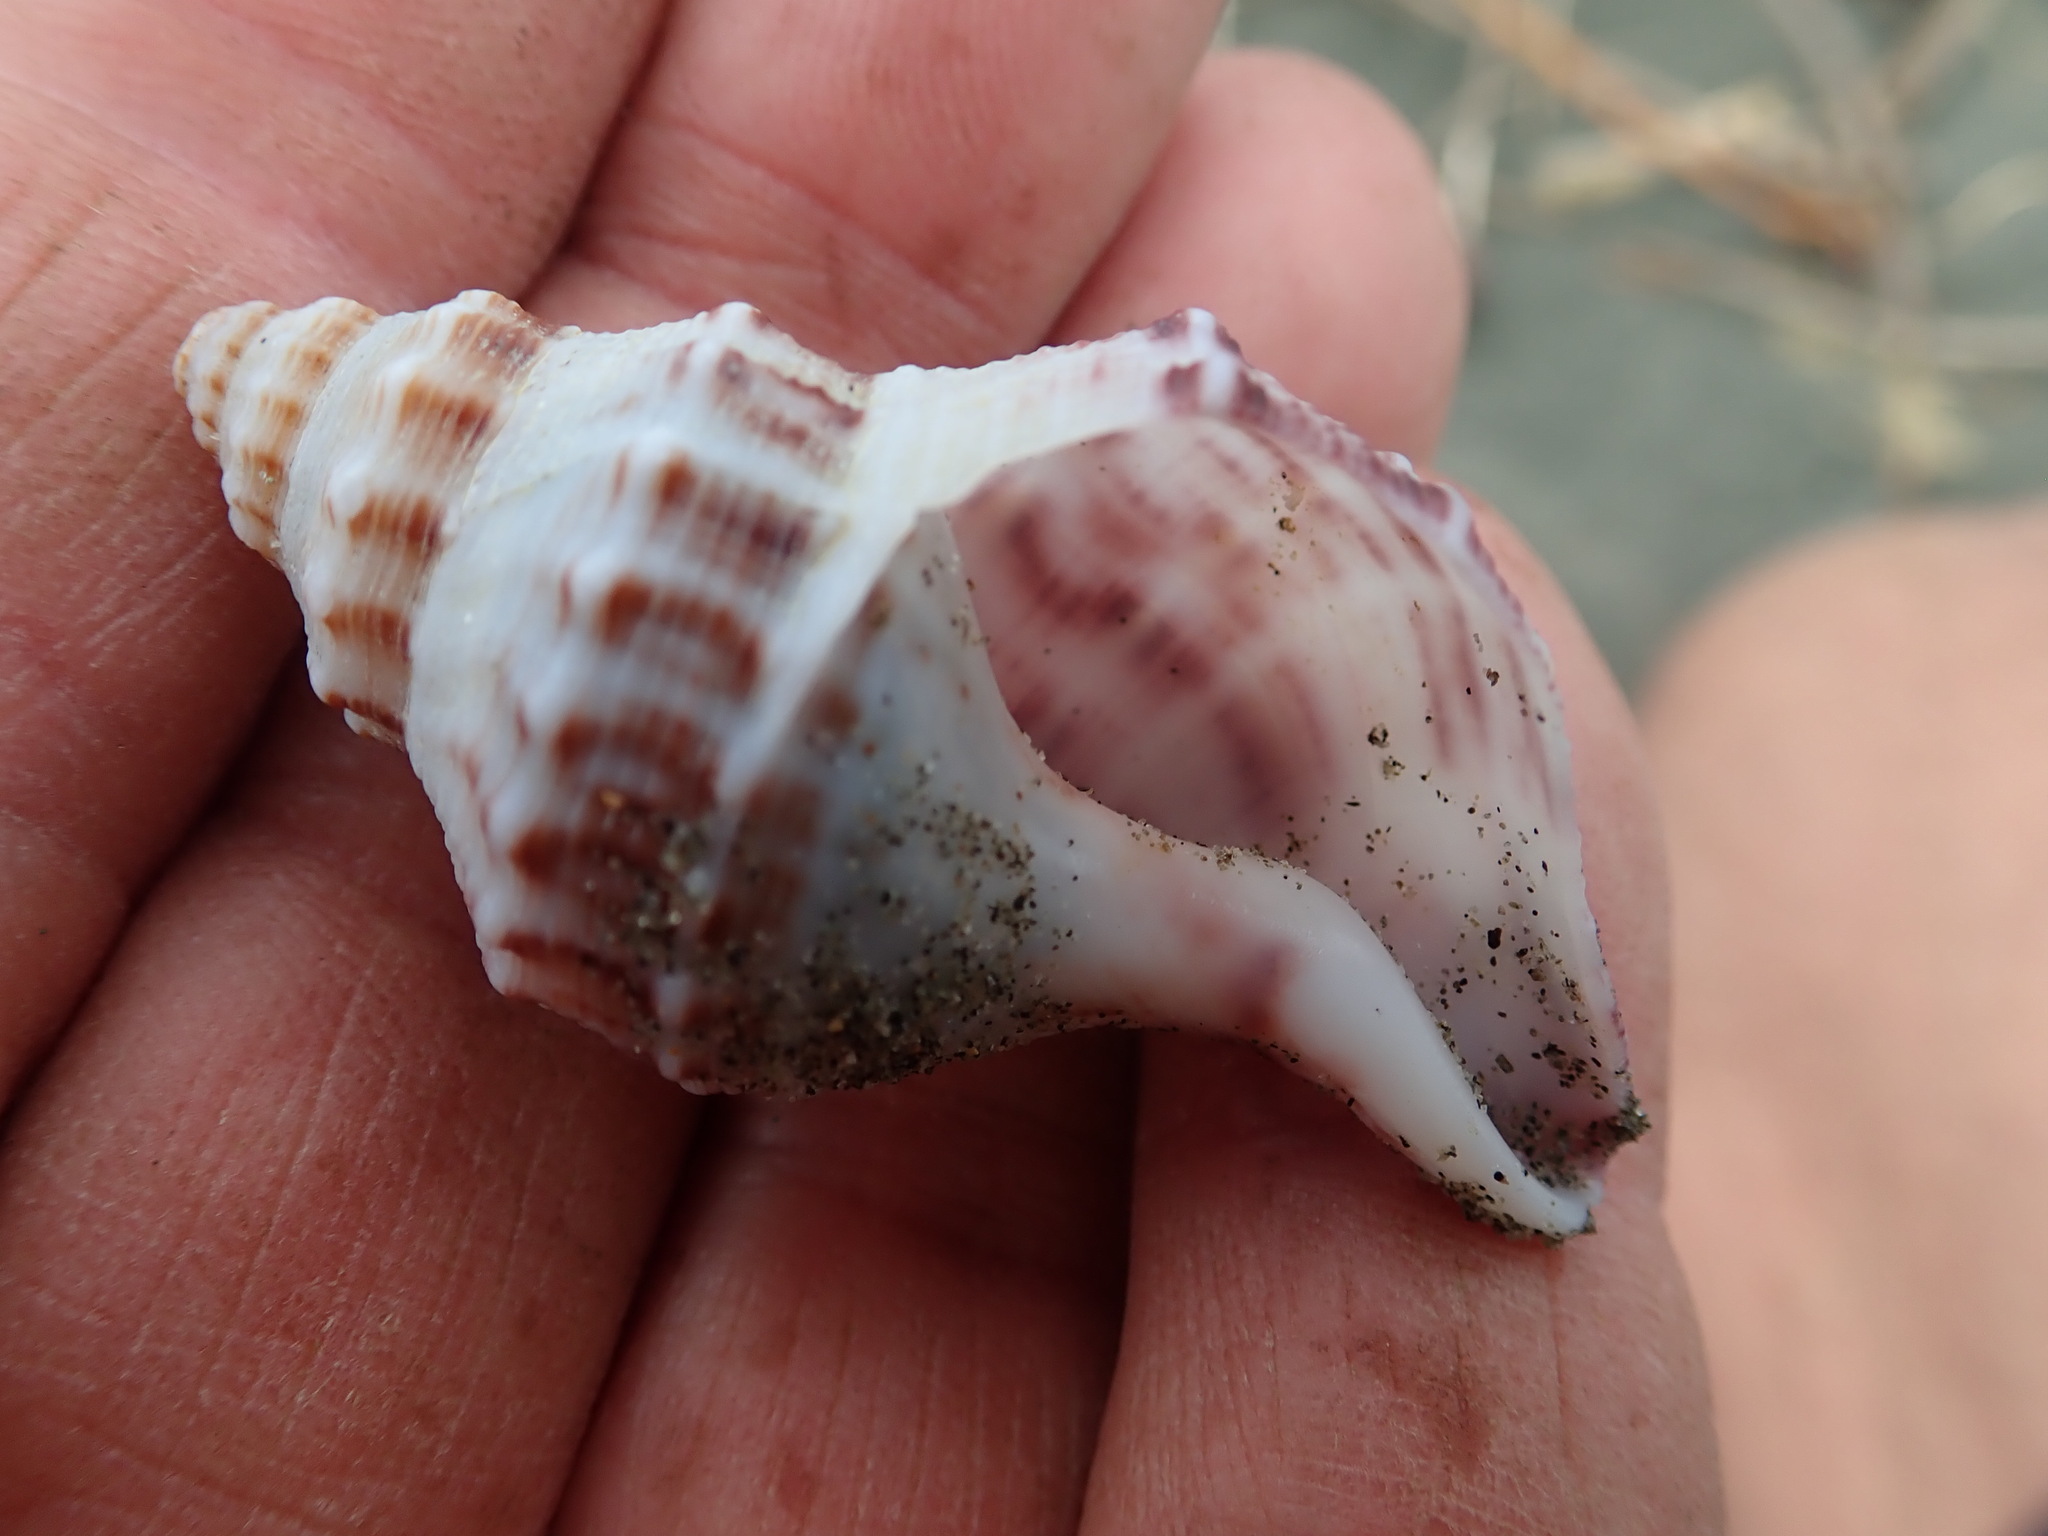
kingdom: Animalia
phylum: Mollusca
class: Gastropoda
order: Neogastropoda
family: Prosiphonidae
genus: Austrofusus
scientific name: Austrofusus glans
